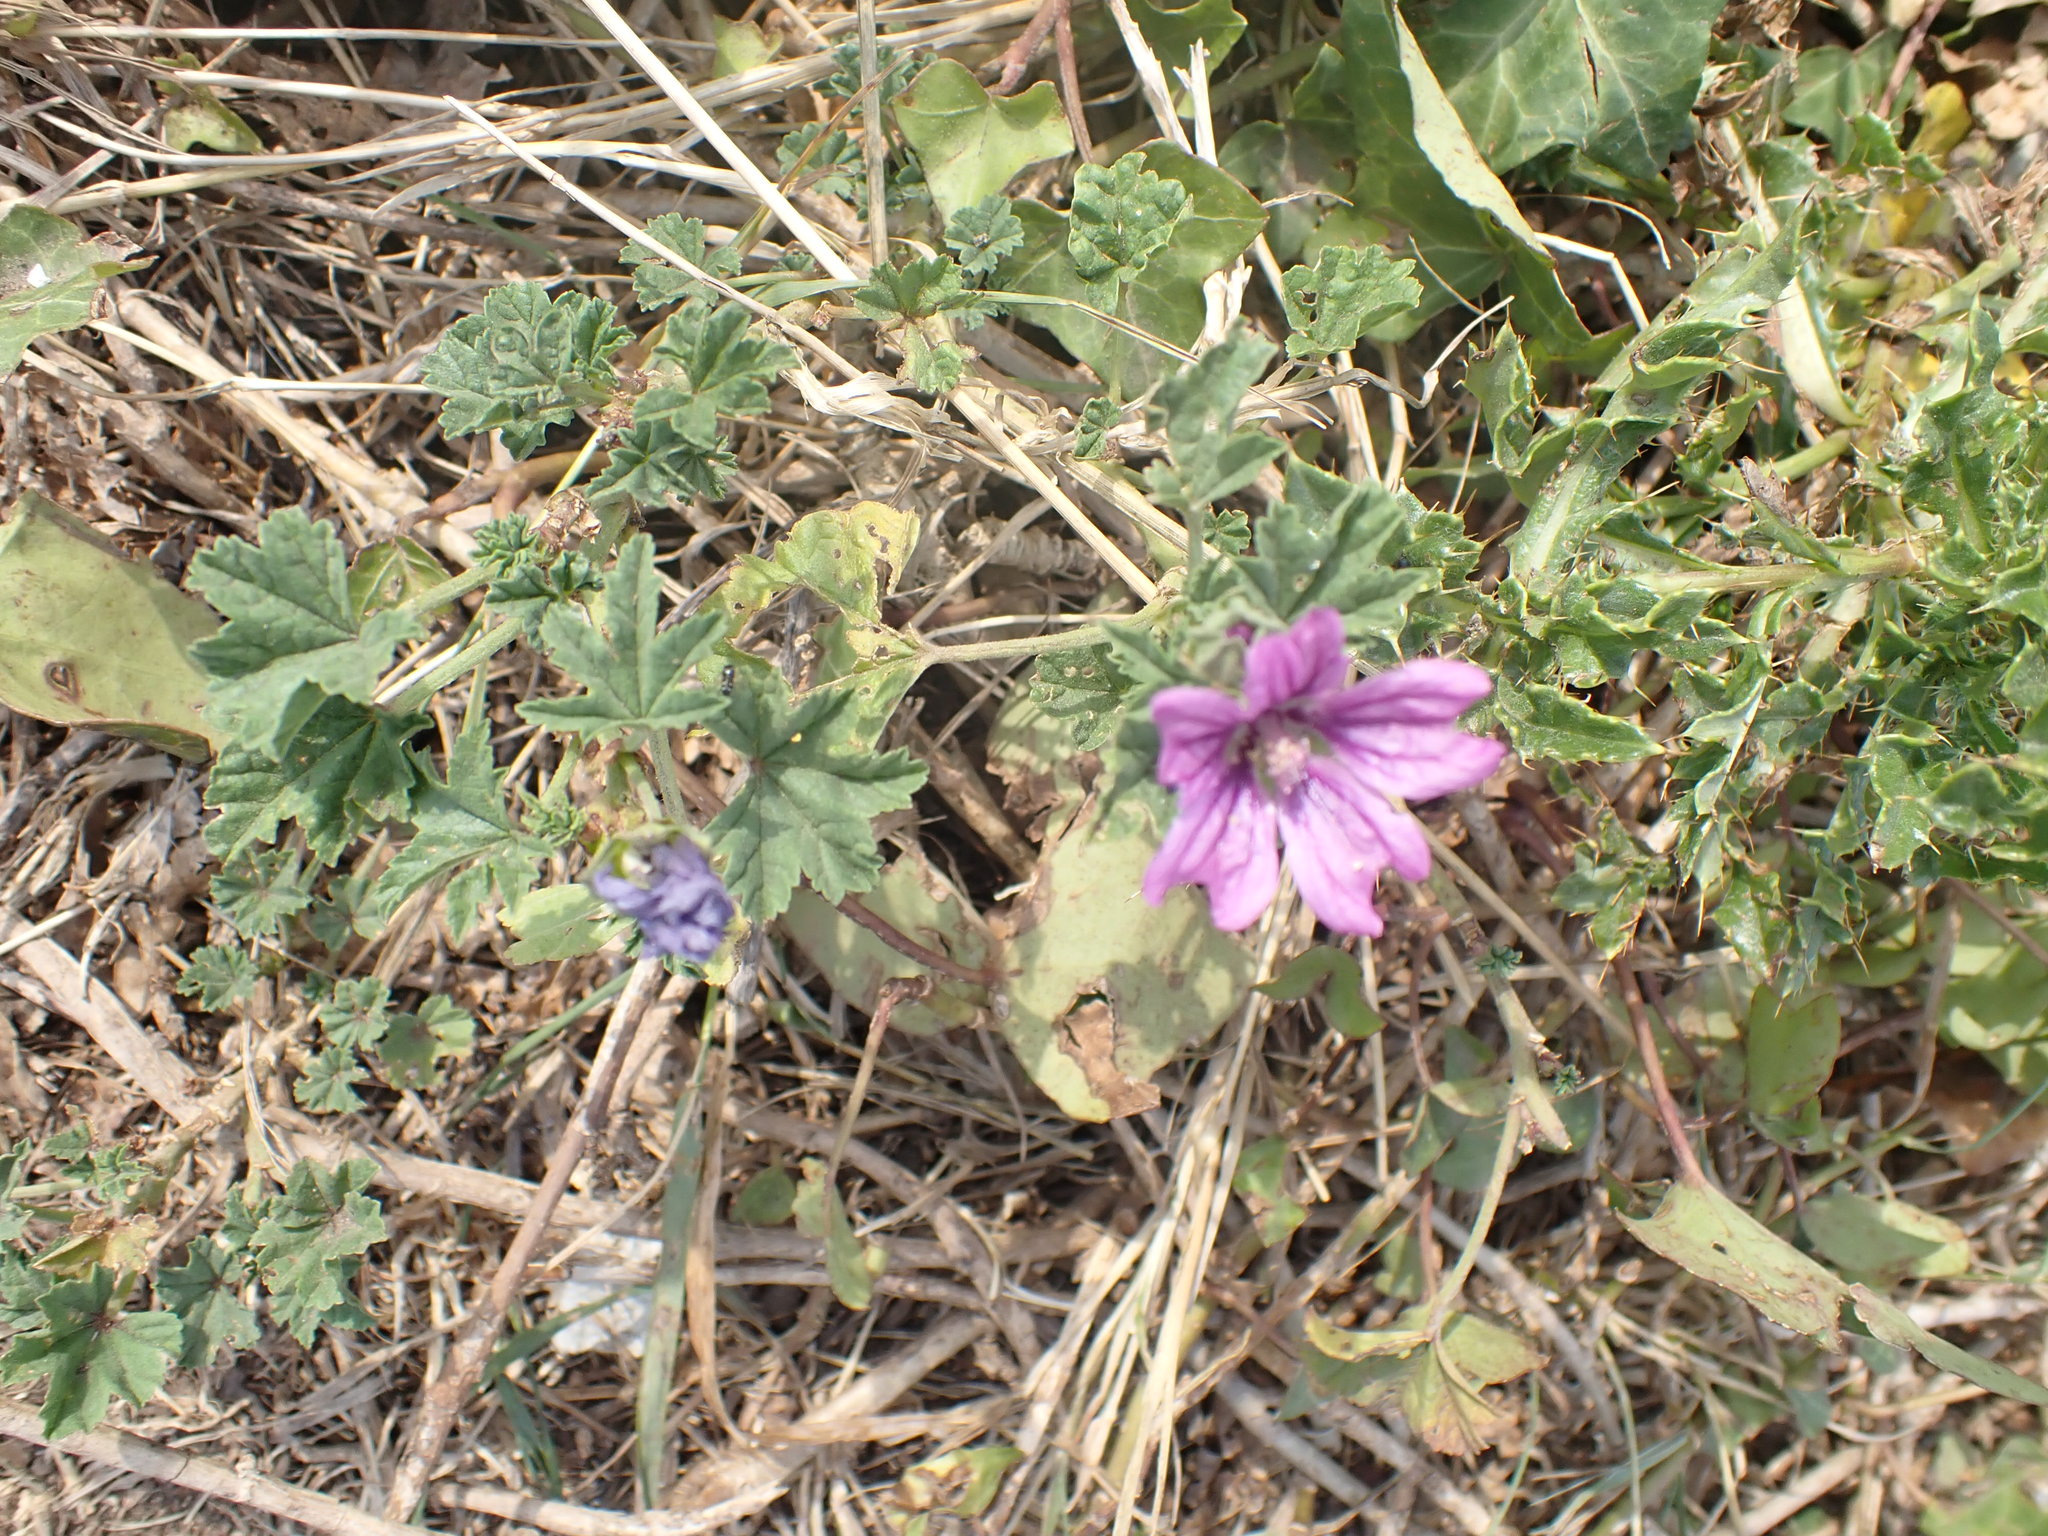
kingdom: Plantae
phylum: Tracheophyta
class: Magnoliopsida
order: Malvales
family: Malvaceae
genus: Malva
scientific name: Malva sylvestris
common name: Common mallow
